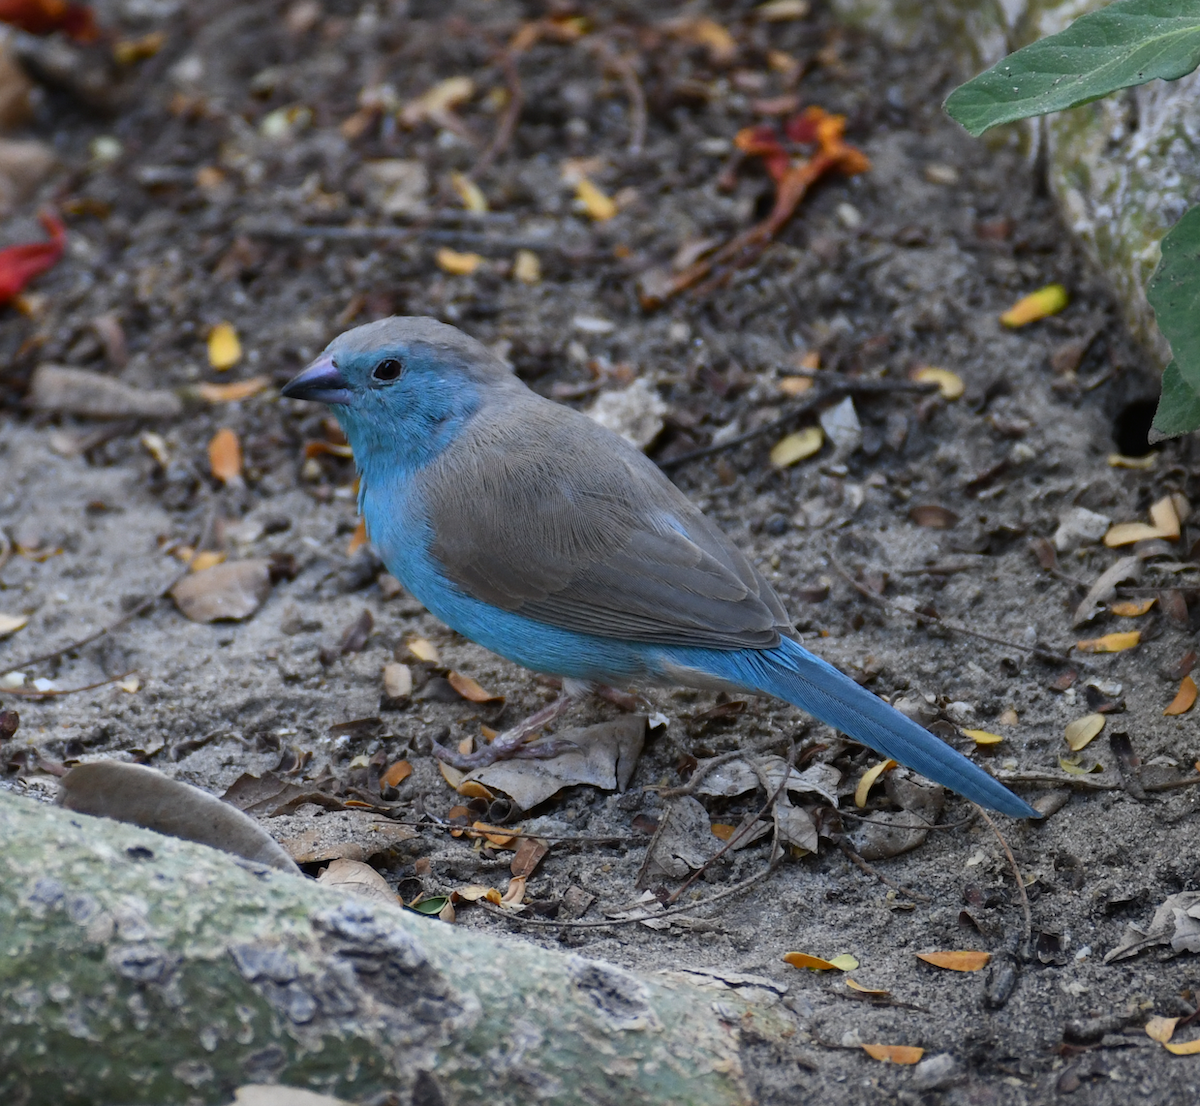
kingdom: Animalia
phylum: Chordata
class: Aves
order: Passeriformes
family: Estrildidae
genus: Uraeginthus
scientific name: Uraeginthus angolensis
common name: Blue waxbill
